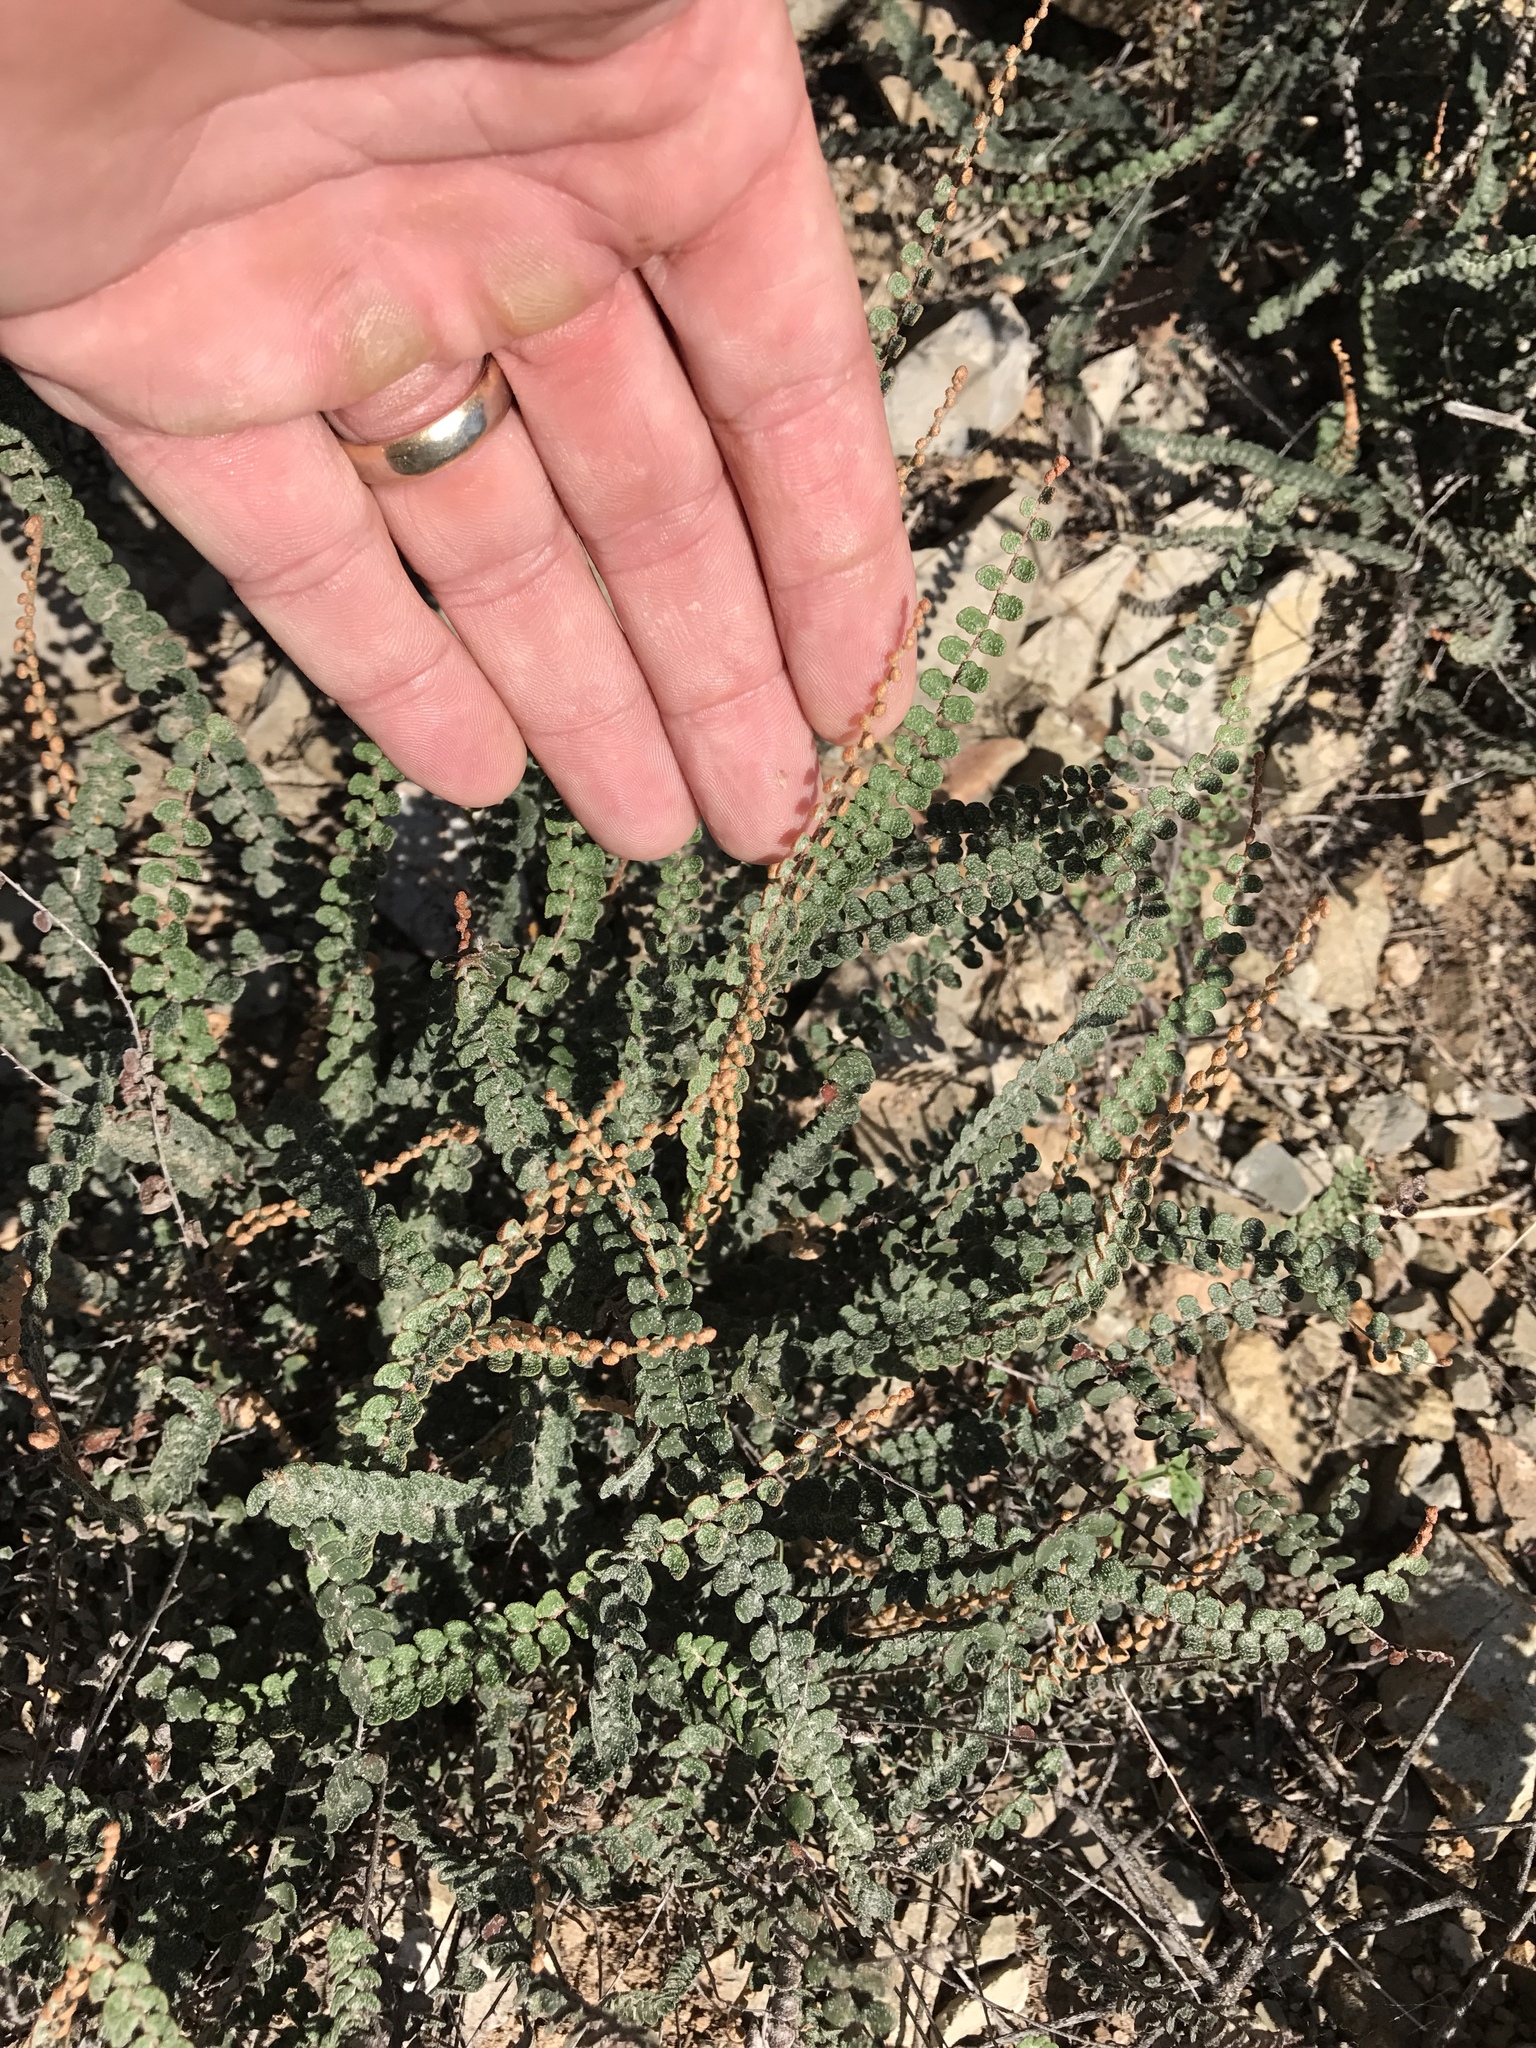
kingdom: Plantae
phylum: Tracheophyta
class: Polypodiopsida
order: Polypodiales
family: Pteridaceae
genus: Astrolepis
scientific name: Astrolepis cochisensis
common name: Scaly cloak fern
